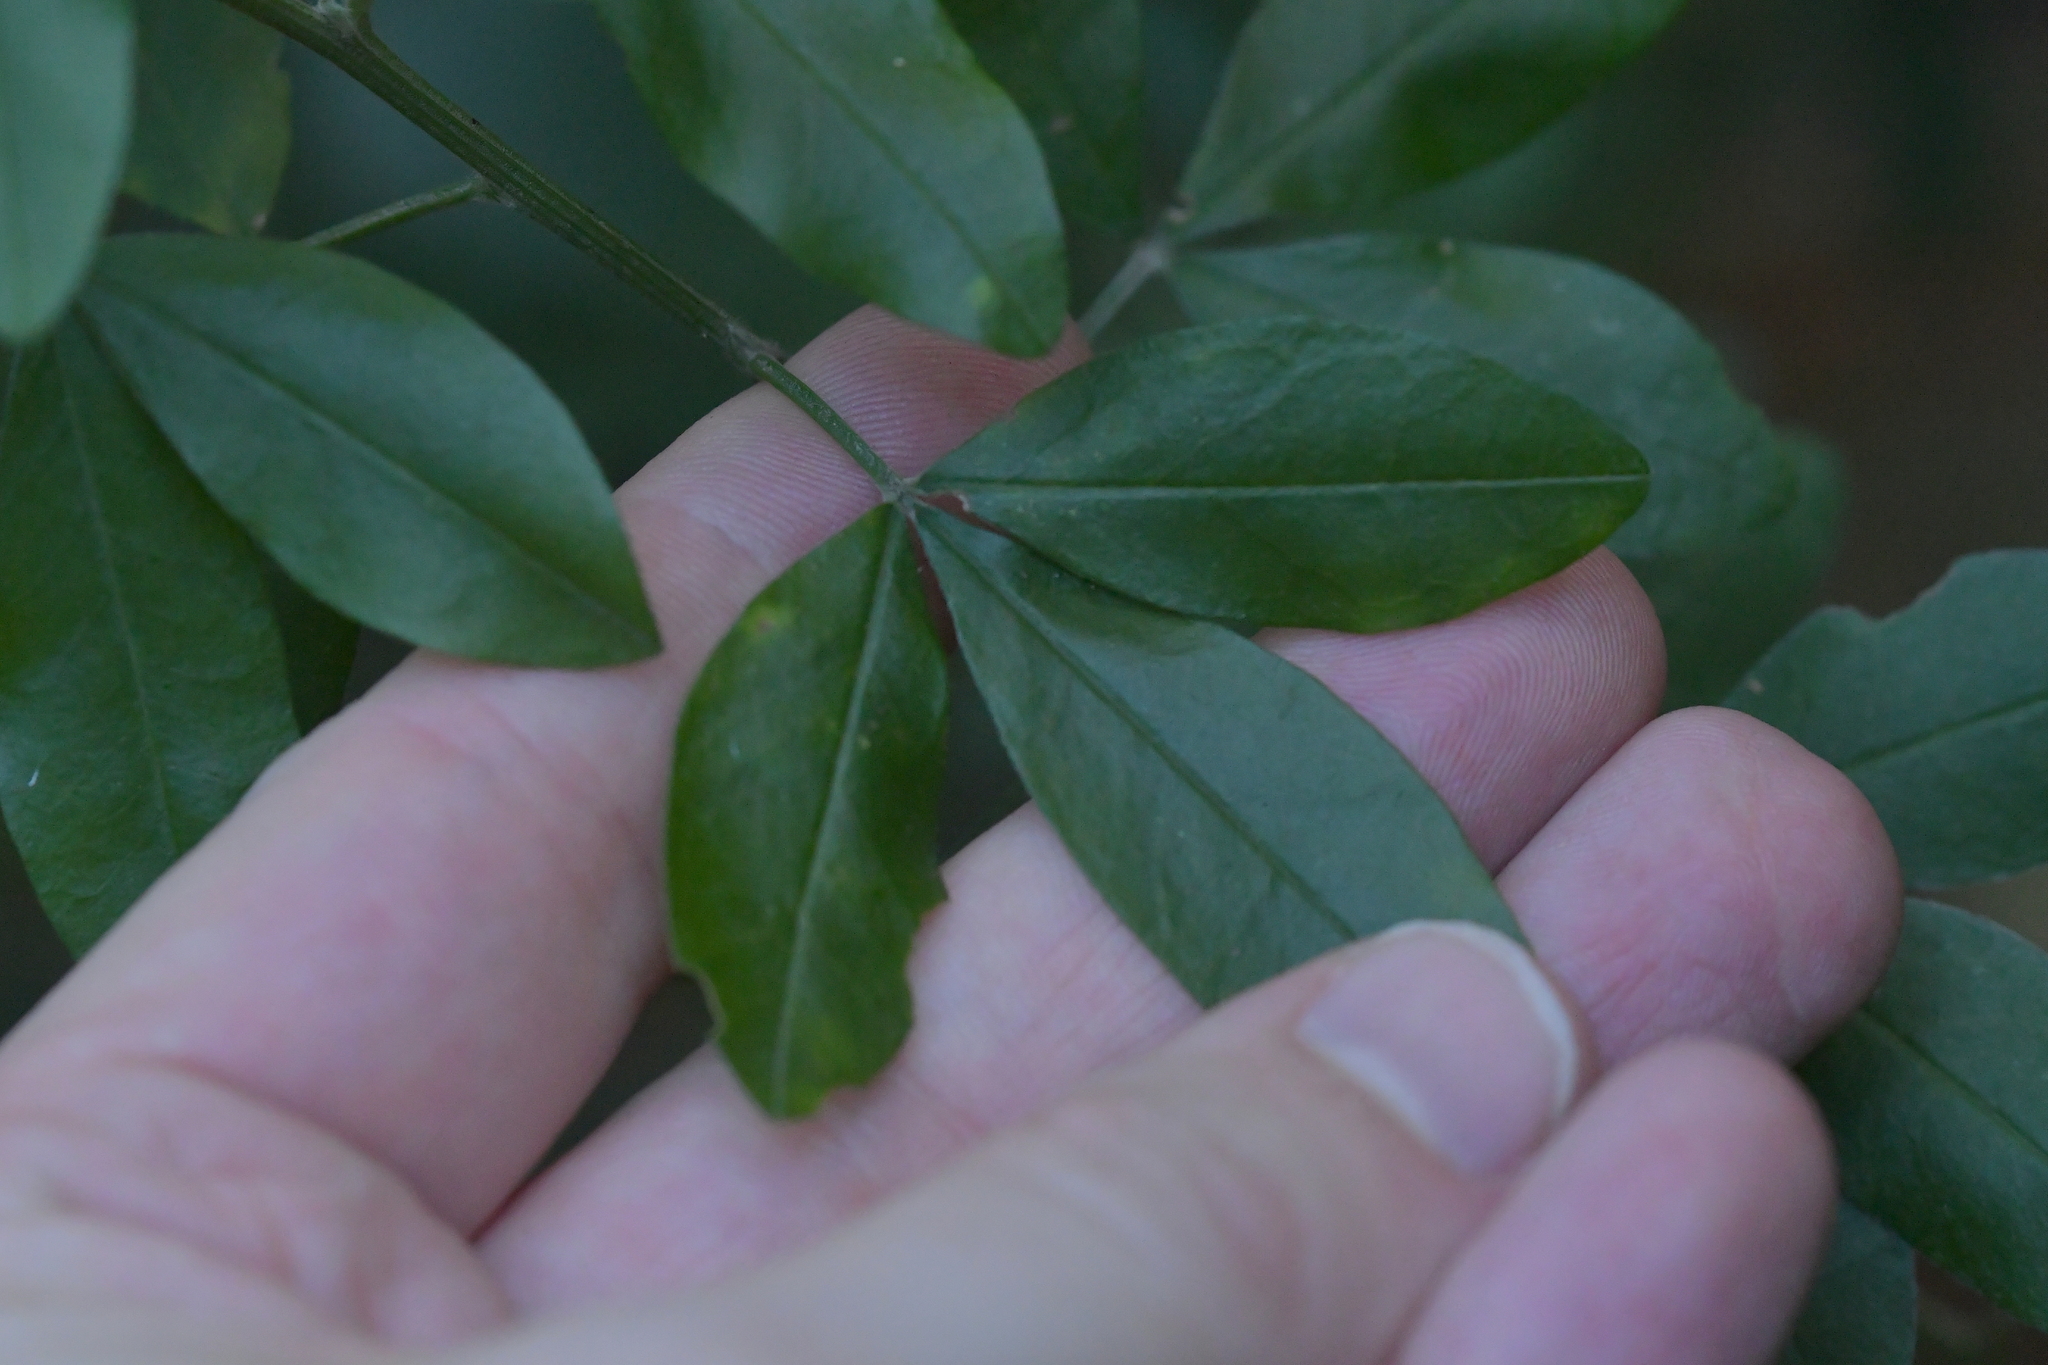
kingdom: Plantae
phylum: Tracheophyta
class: Magnoliopsida
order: Fabales
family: Fabaceae
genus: Genista
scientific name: Genista stenopetala
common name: Leafy broom
